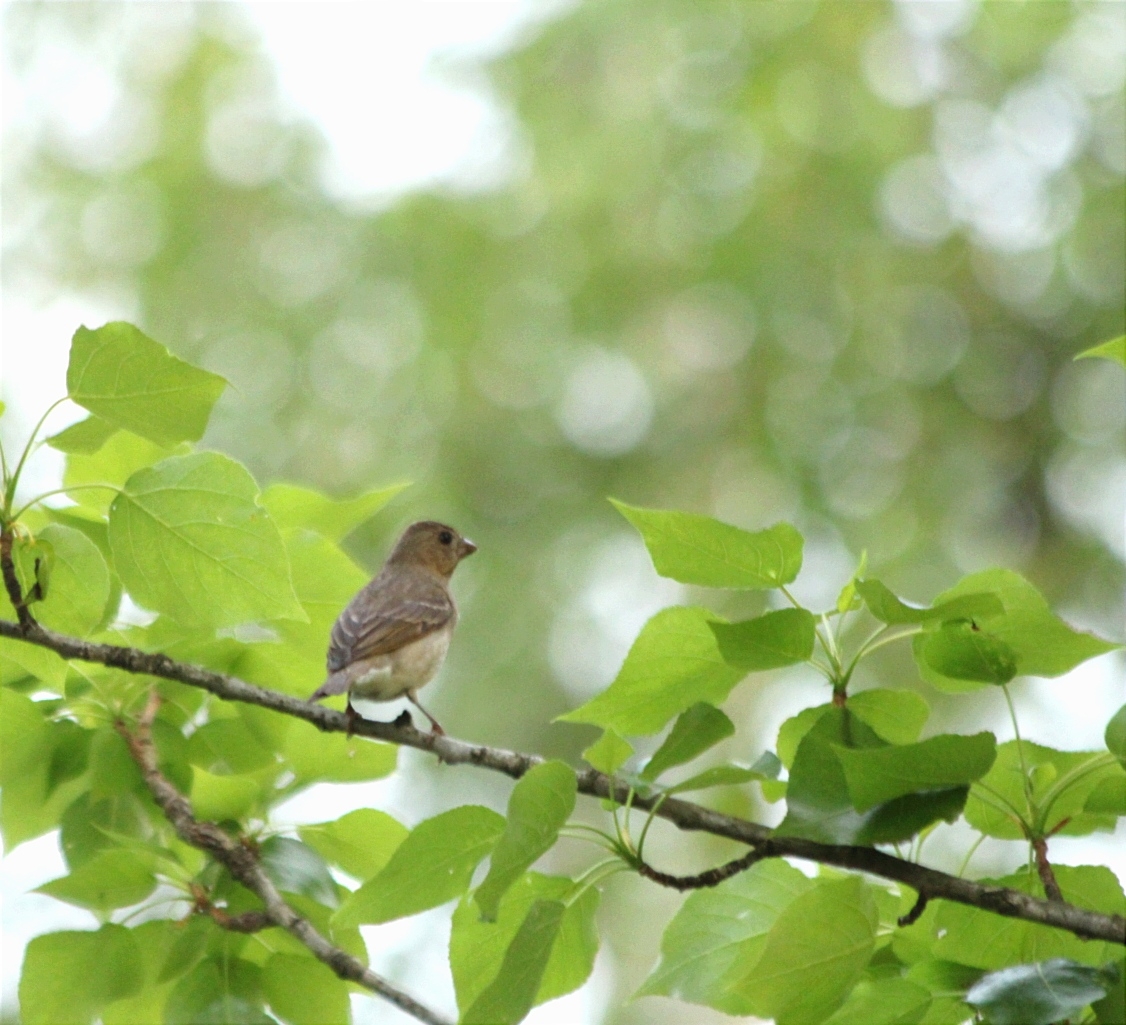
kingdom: Animalia
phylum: Chordata
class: Aves
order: Passeriformes
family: Fringillidae
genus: Carpodacus
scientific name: Carpodacus erythrinus
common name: Common rosefinch
